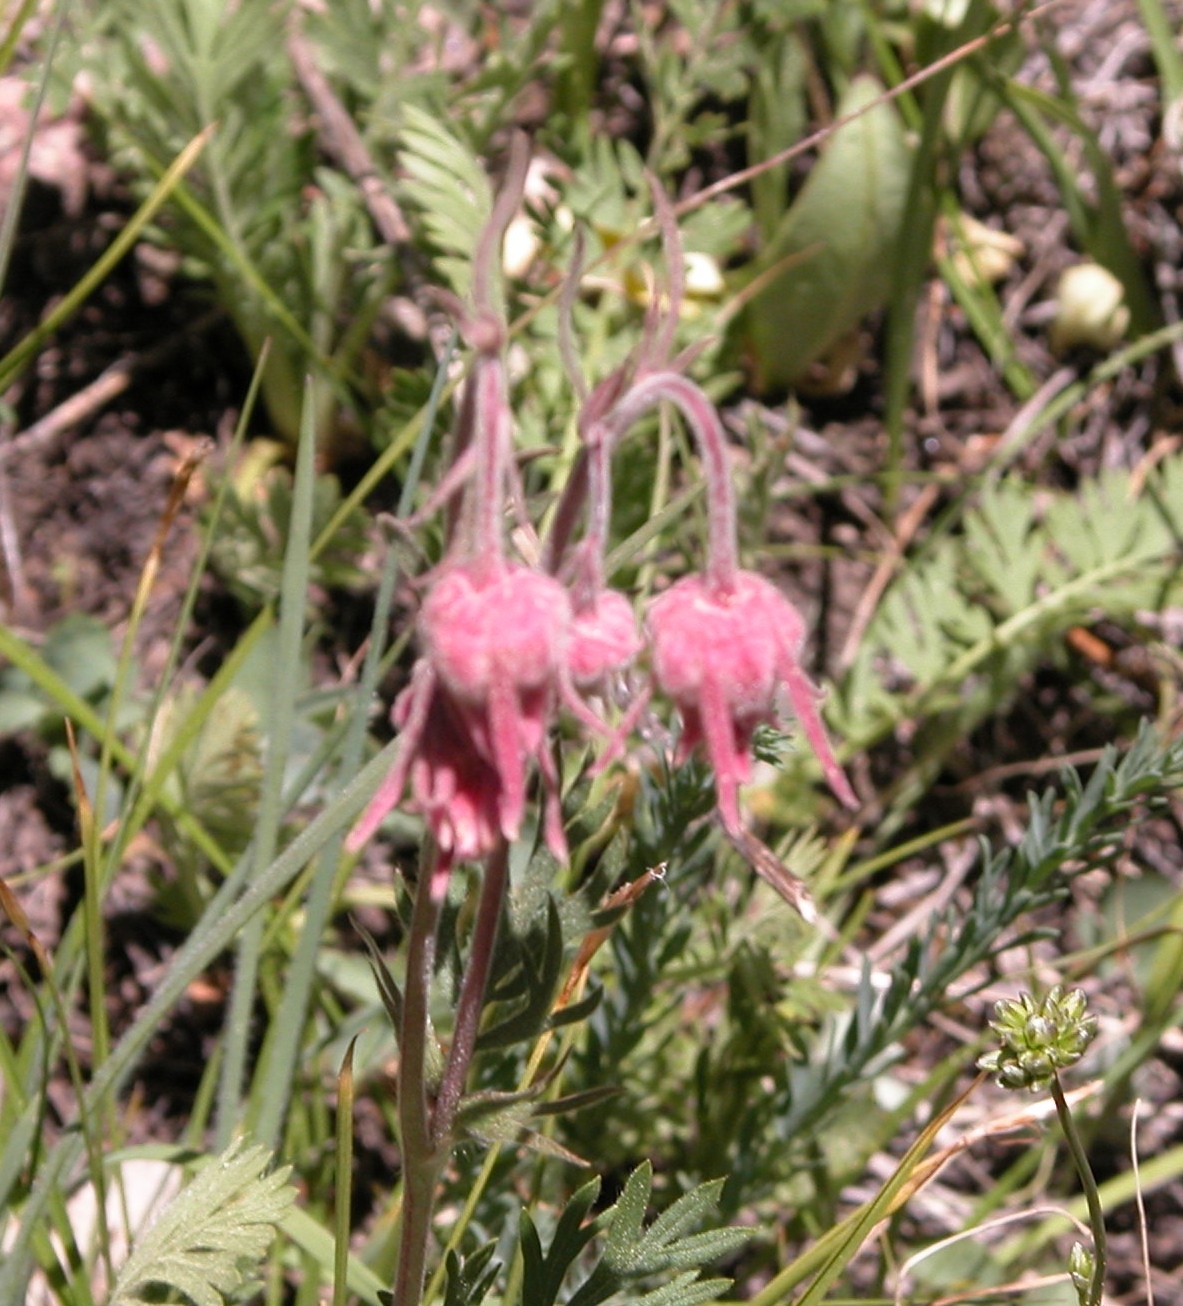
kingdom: Plantae
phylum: Tracheophyta
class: Magnoliopsida
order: Rosales
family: Rosaceae
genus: Geum
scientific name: Geum triflorum
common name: Old man's whiskers
